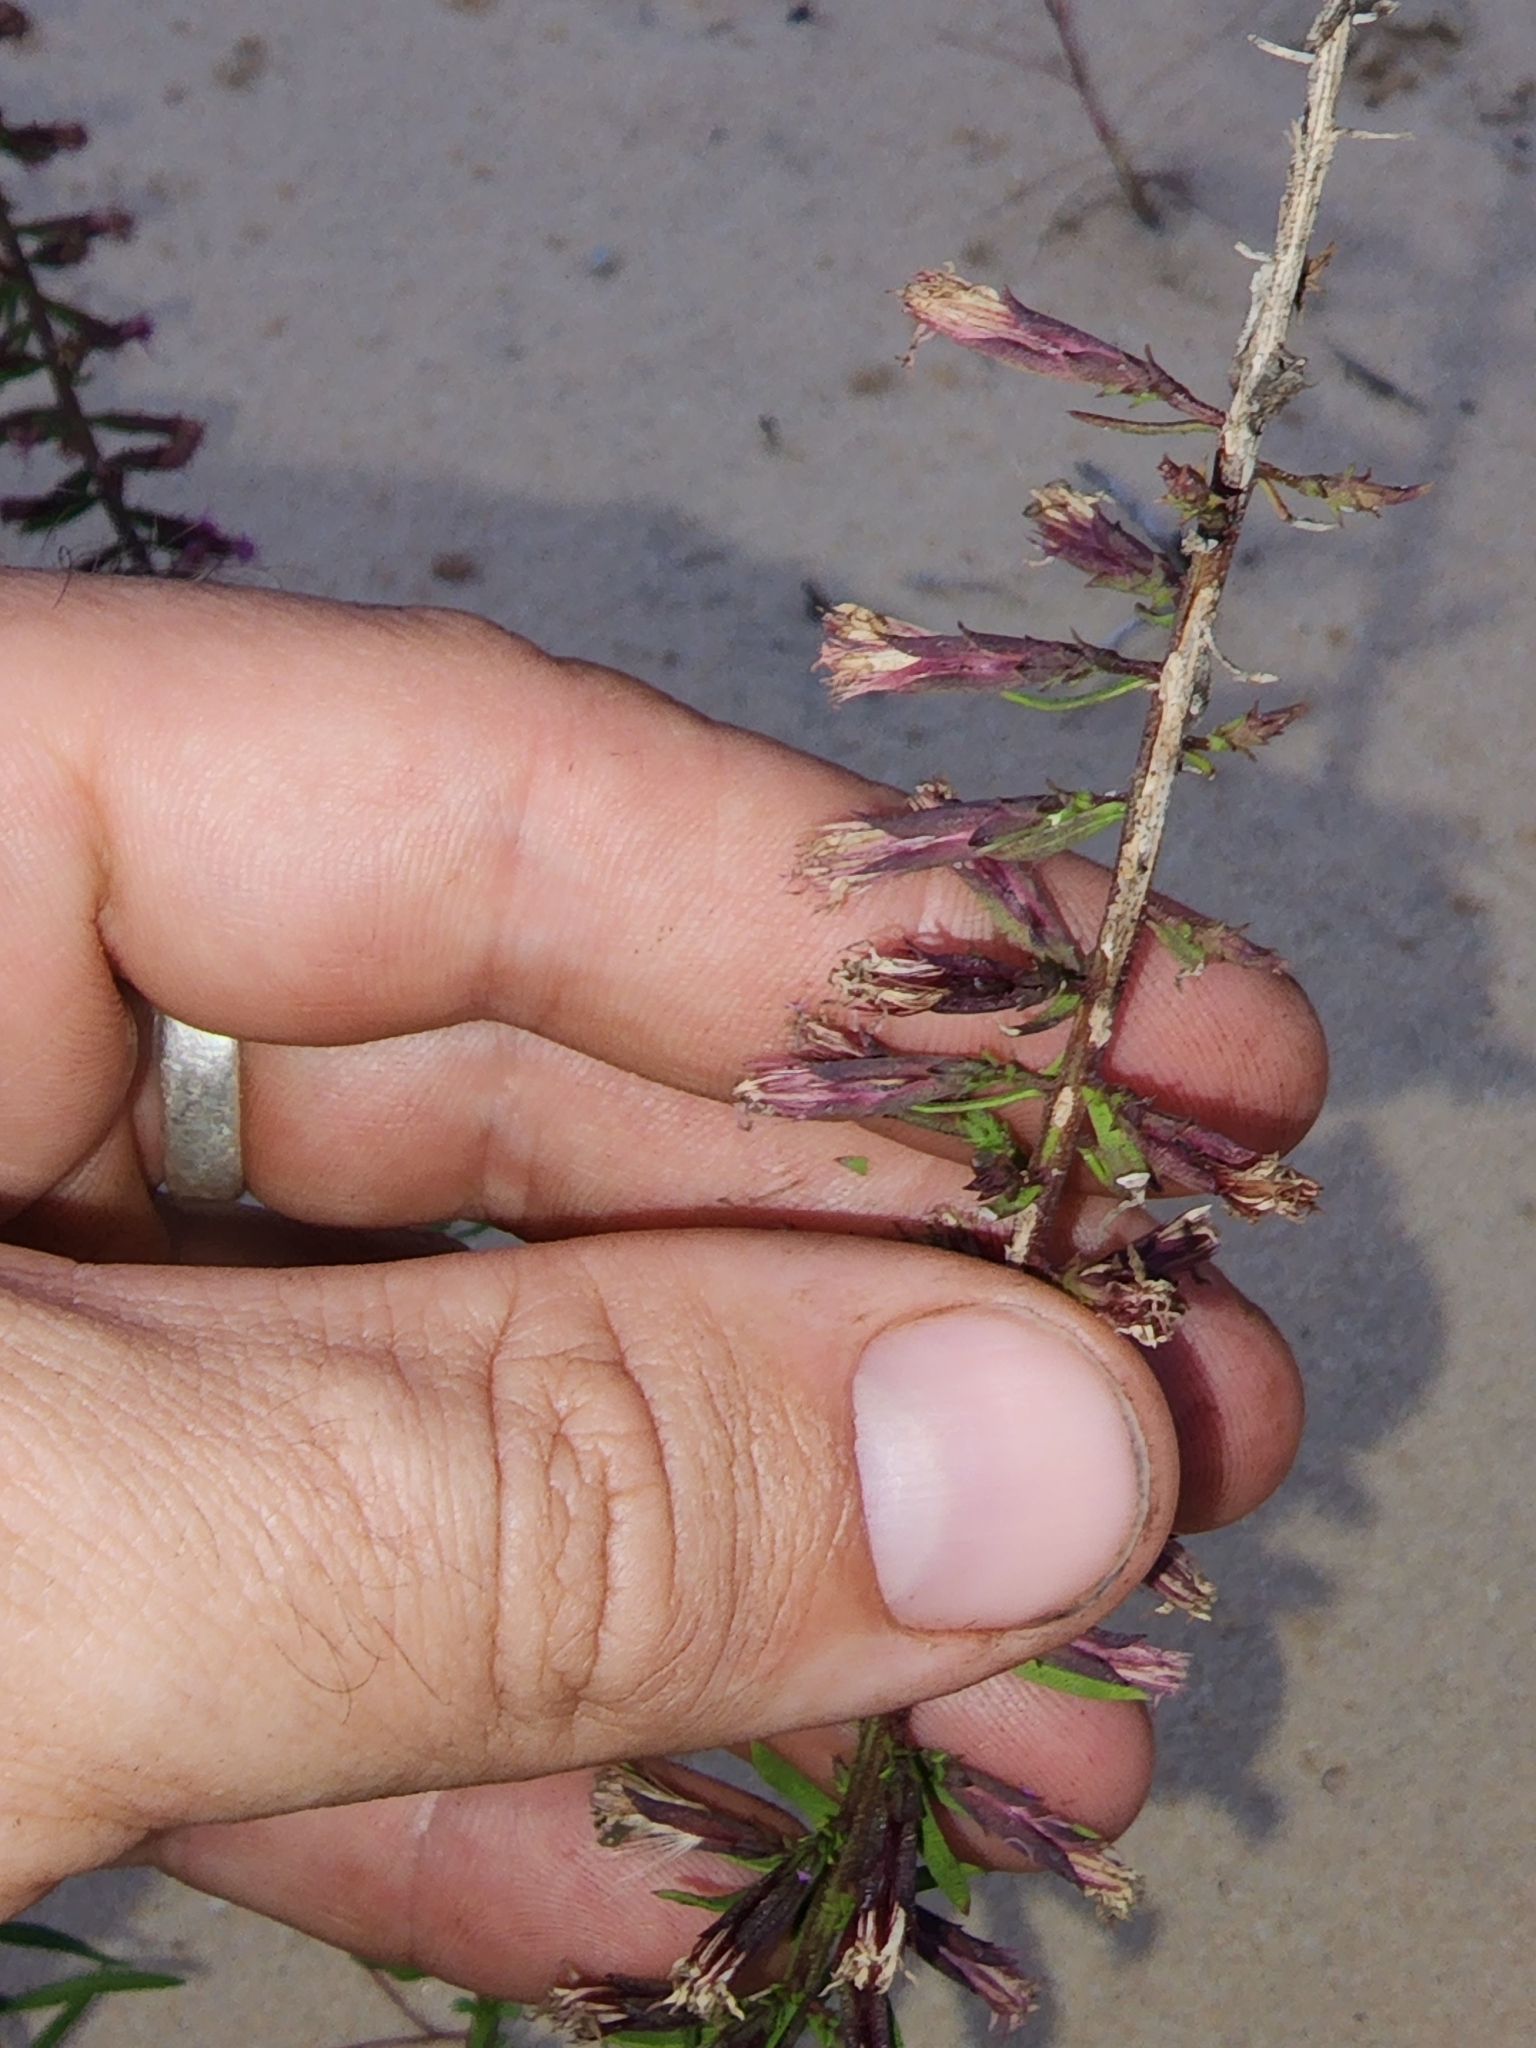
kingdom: Plantae
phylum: Tracheophyta
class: Magnoliopsida
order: Asterales
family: Asteraceae
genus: Liatris
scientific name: Liatris provincialis
